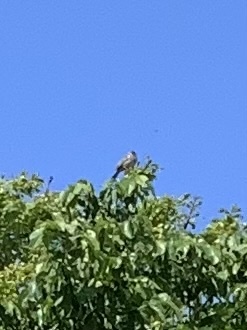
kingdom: Animalia
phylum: Chordata
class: Aves
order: Passeriformes
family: Emberizidae
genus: Emberiza
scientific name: Emberiza calandra
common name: Corn bunting
